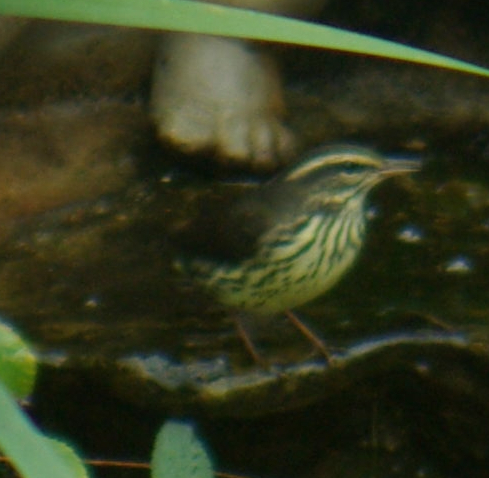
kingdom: Animalia
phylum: Chordata
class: Aves
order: Passeriformes
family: Parulidae
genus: Parkesia
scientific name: Parkesia noveboracensis
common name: Northern waterthrush
